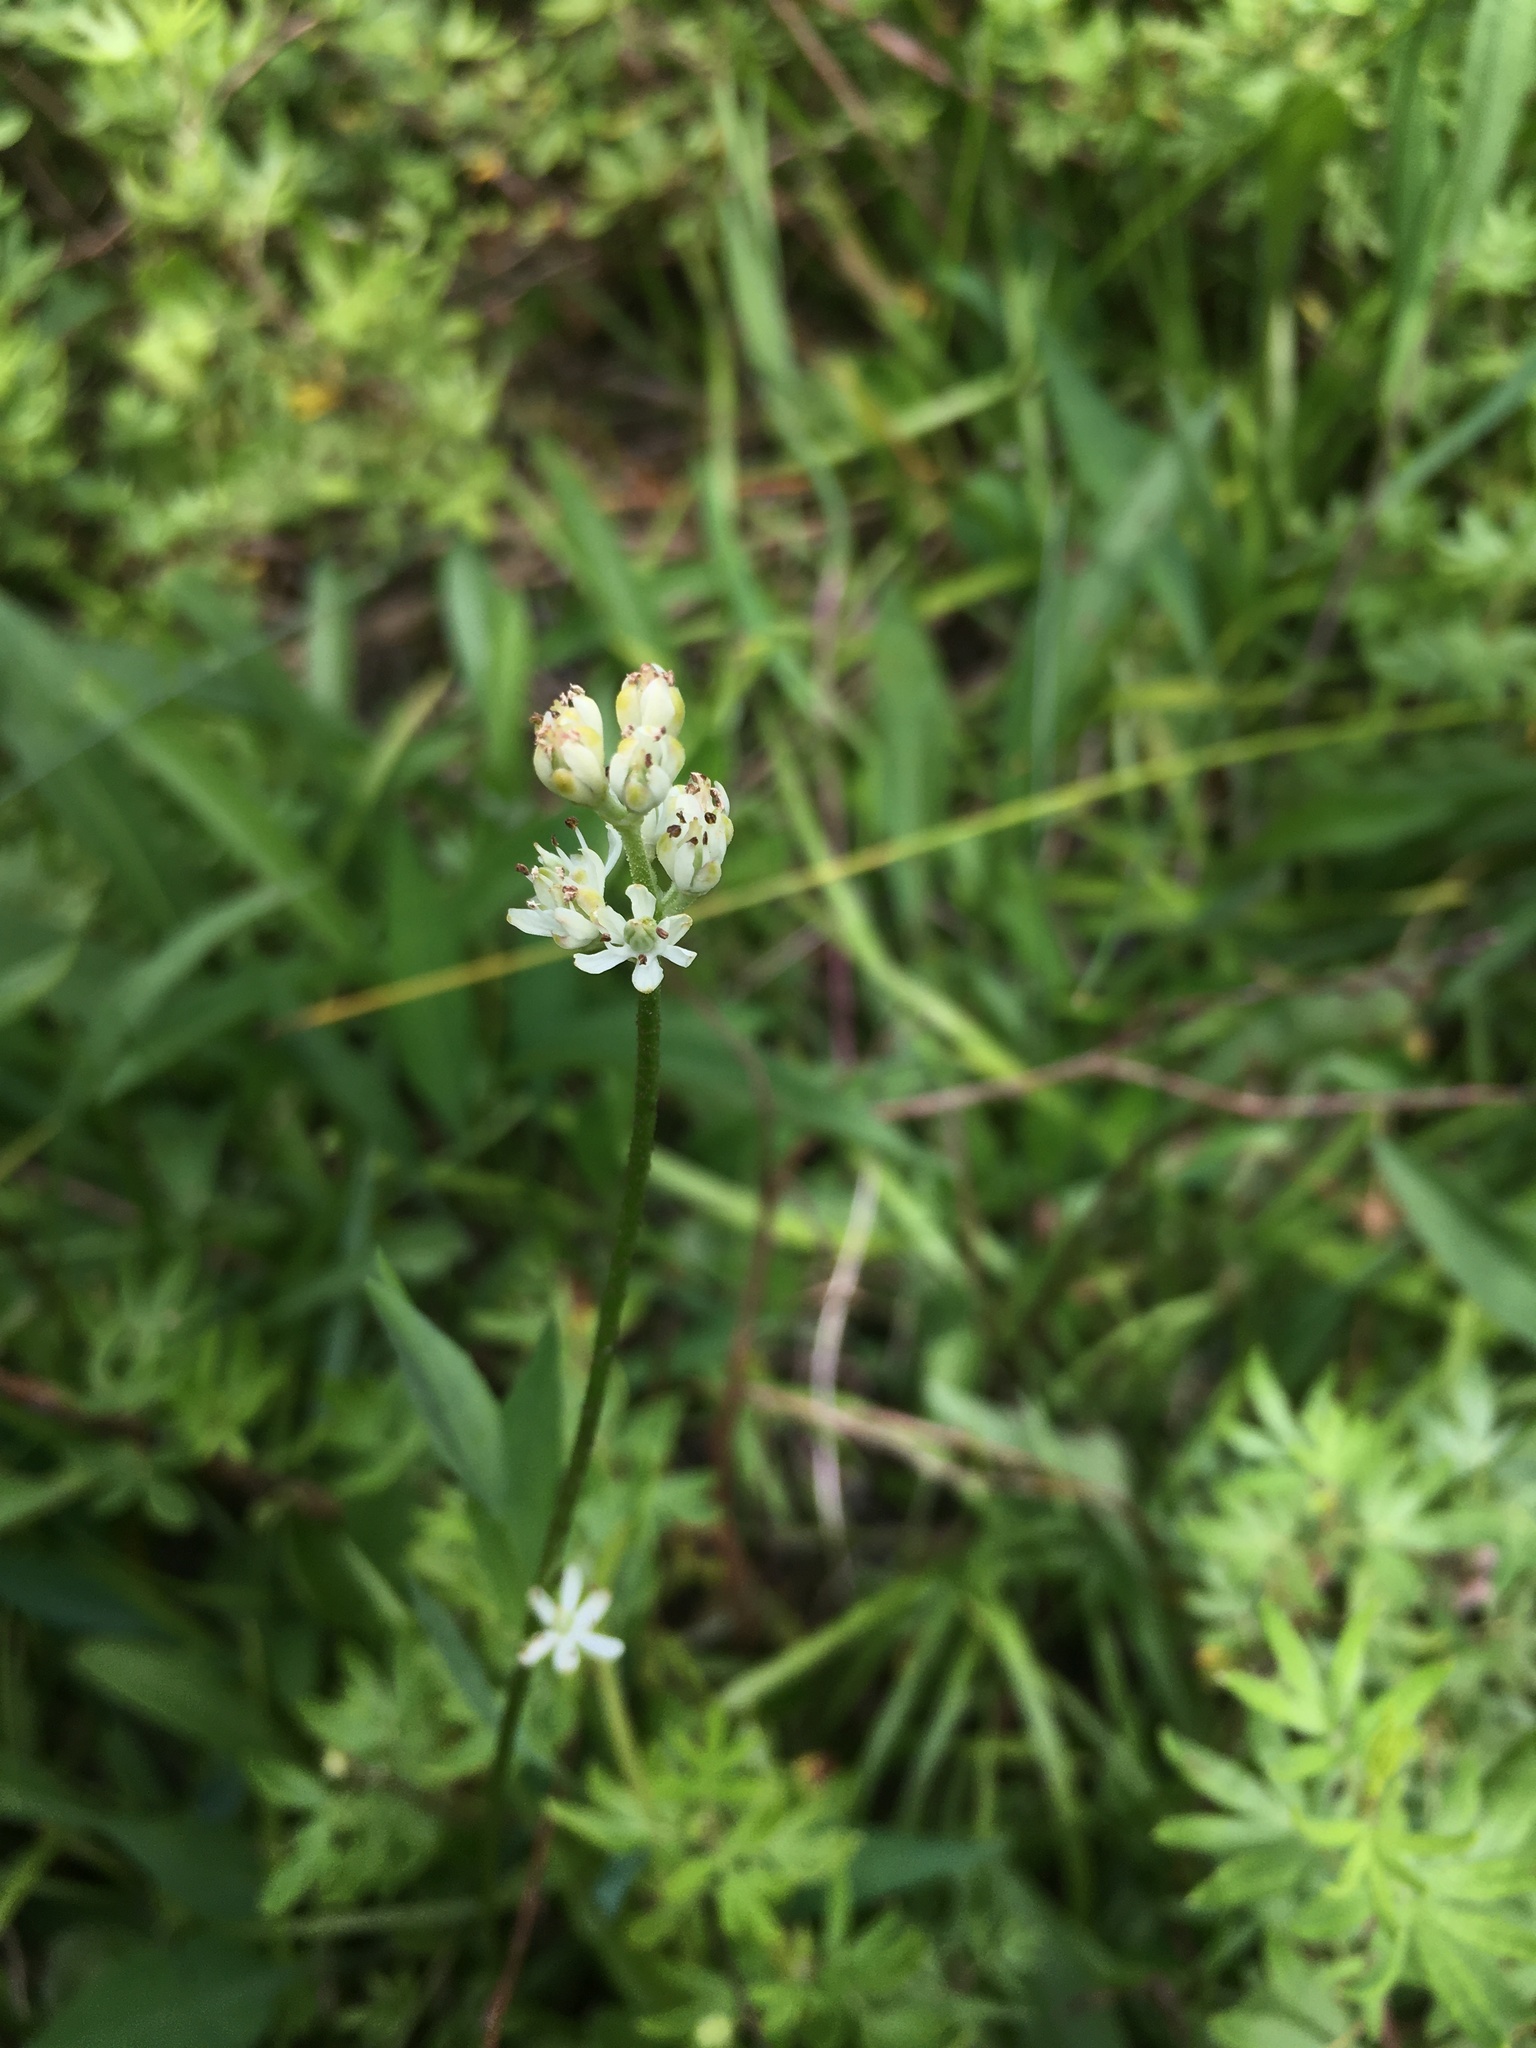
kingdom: Plantae
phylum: Tracheophyta
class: Liliopsida
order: Alismatales
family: Tofieldiaceae
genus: Triantha
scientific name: Triantha glutinosa
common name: Glutinous tofieldia
